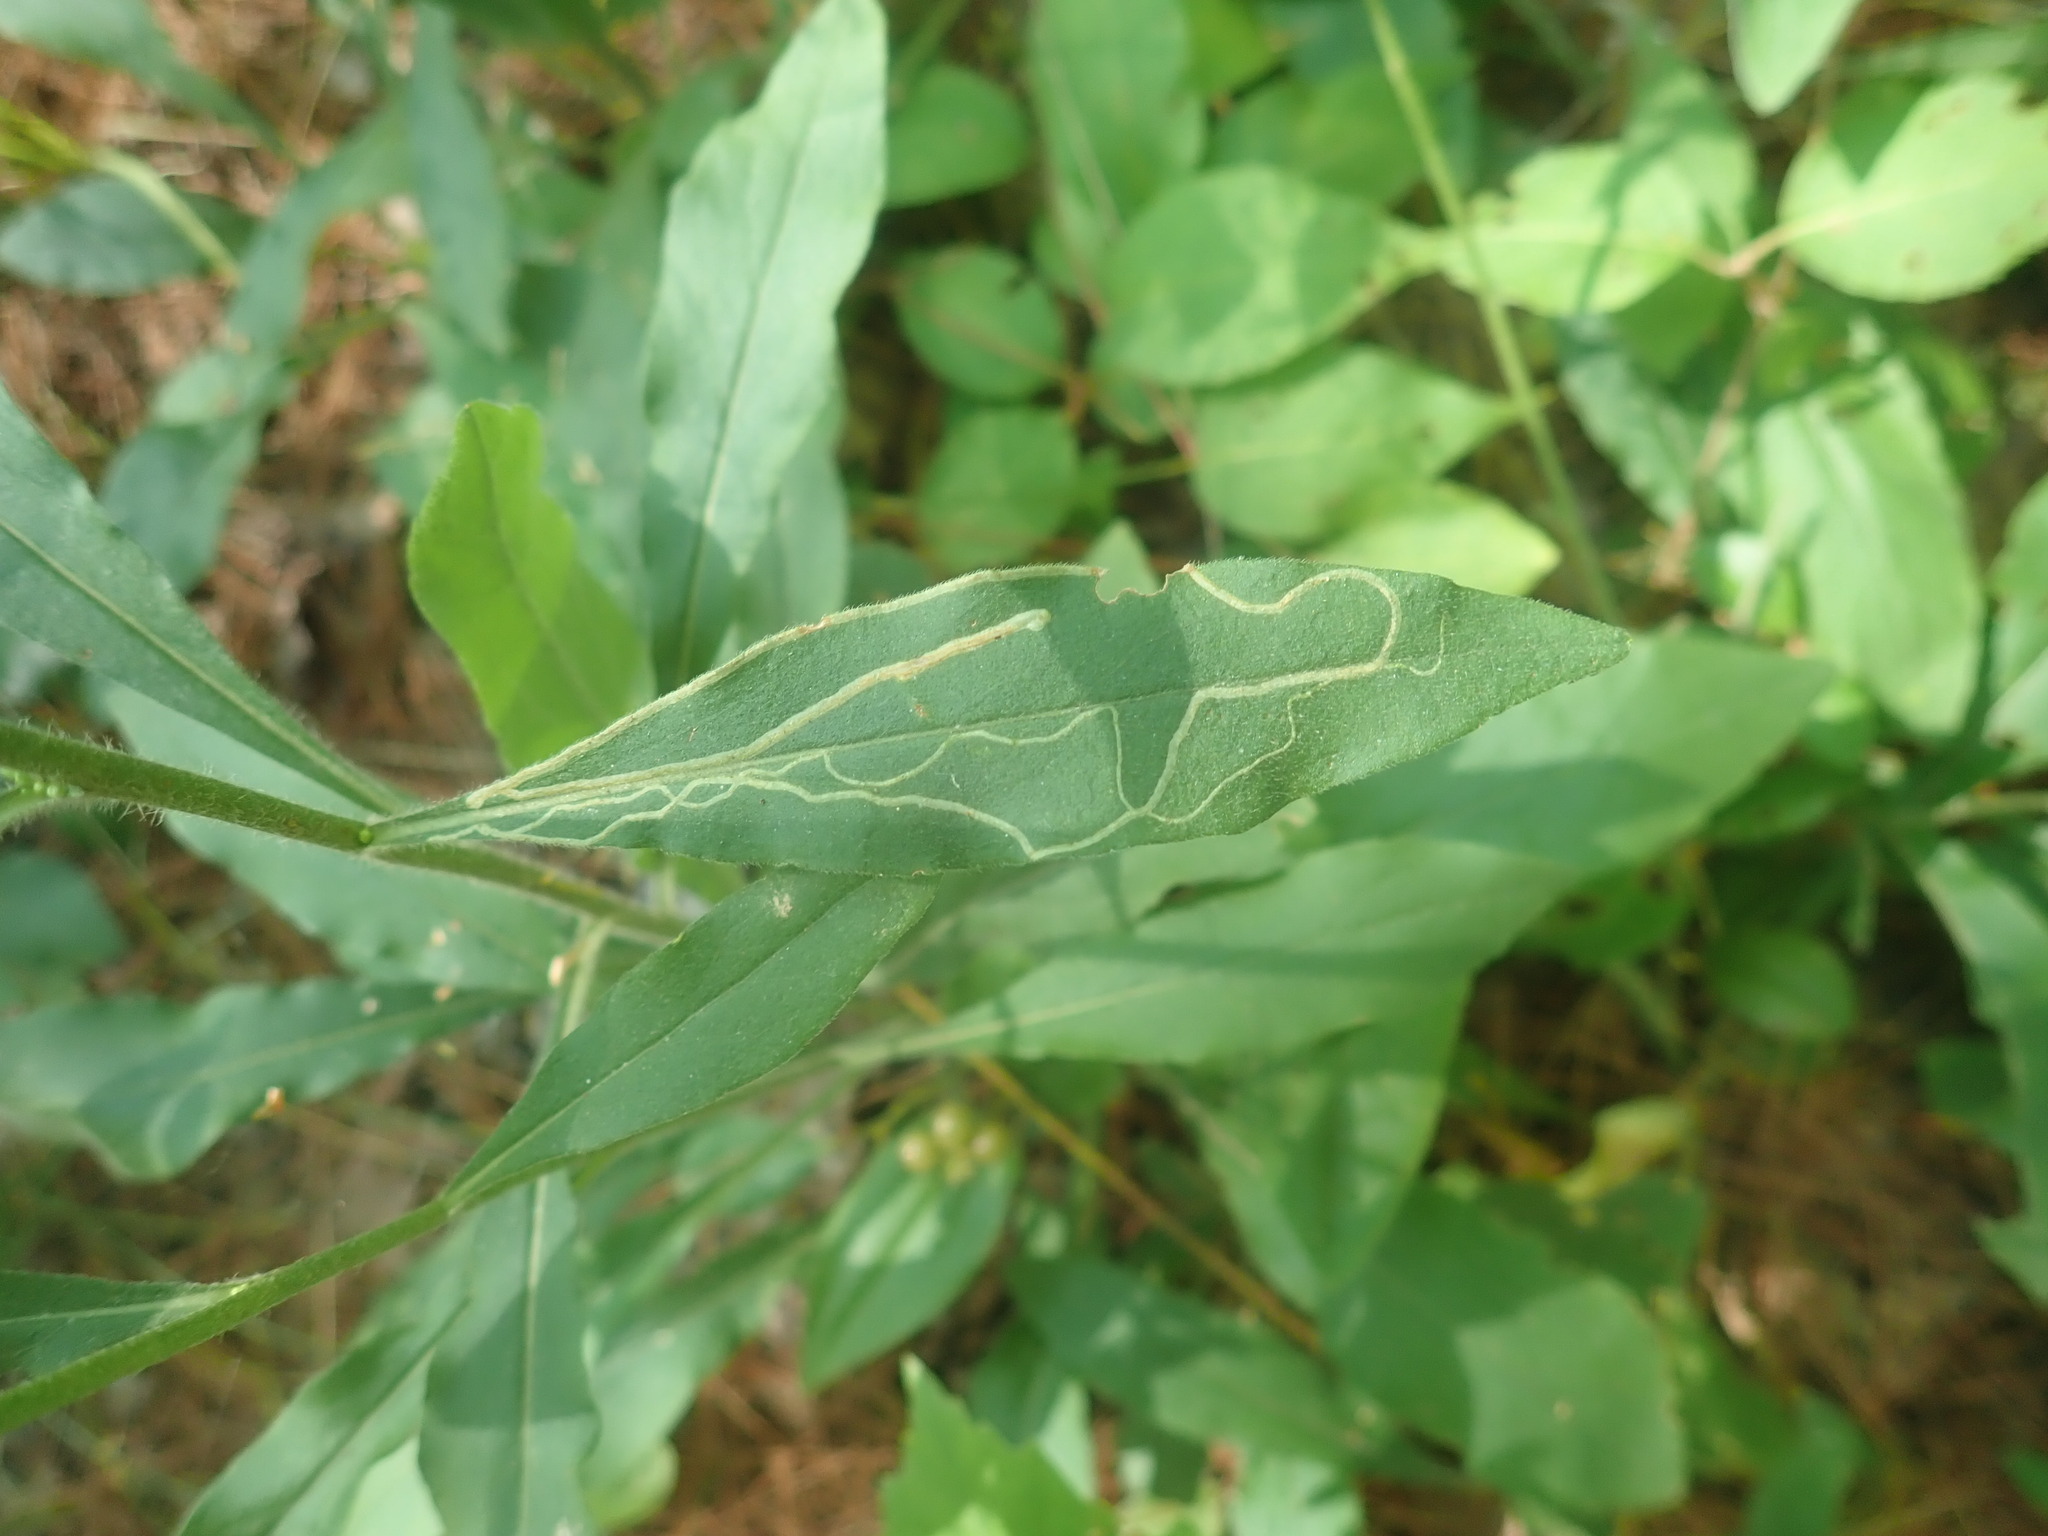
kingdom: Animalia
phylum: Arthropoda
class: Insecta
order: Diptera
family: Agromyzidae
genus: Ophiomyia
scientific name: Ophiomyia maura
